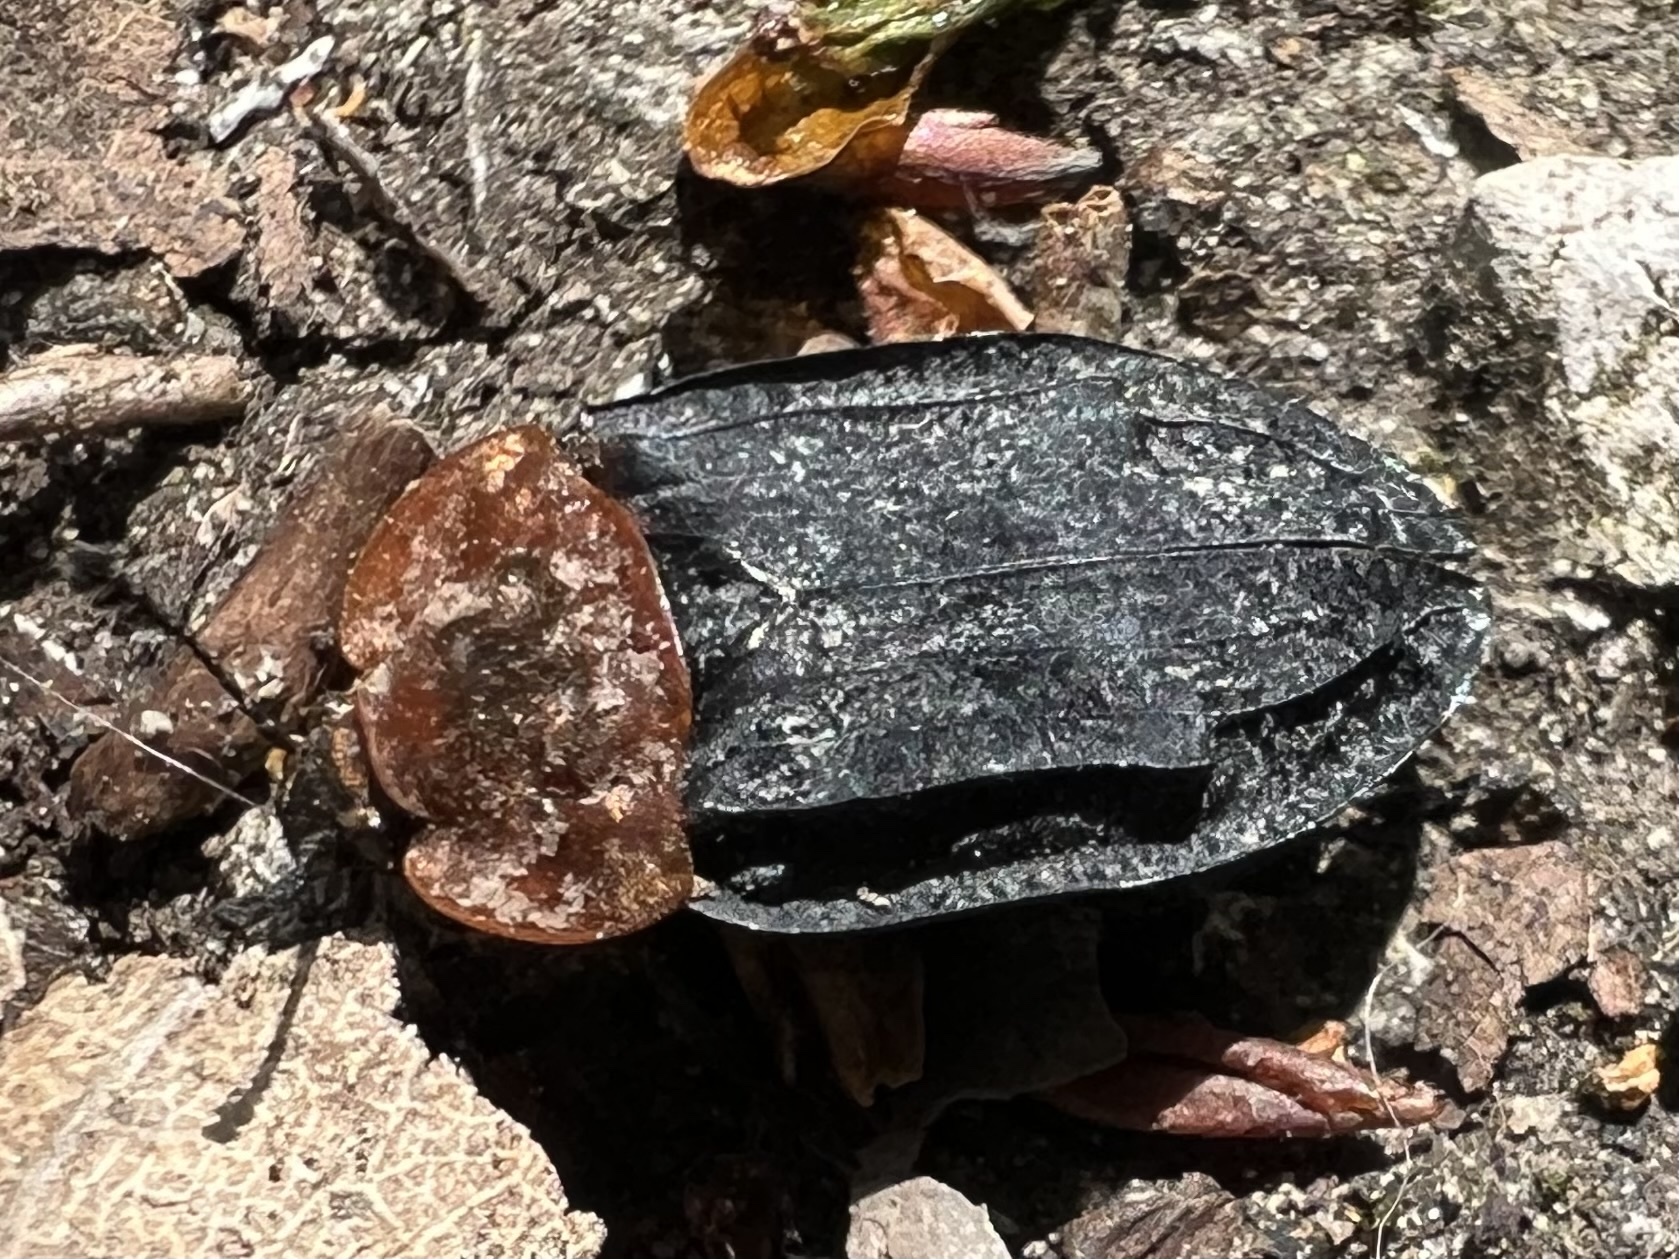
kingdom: Animalia
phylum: Arthropoda
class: Insecta
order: Coleoptera
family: Staphylinidae
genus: Oiceoptoma
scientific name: Oiceoptoma thoracicum
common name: Red-breasted carrion beetle
